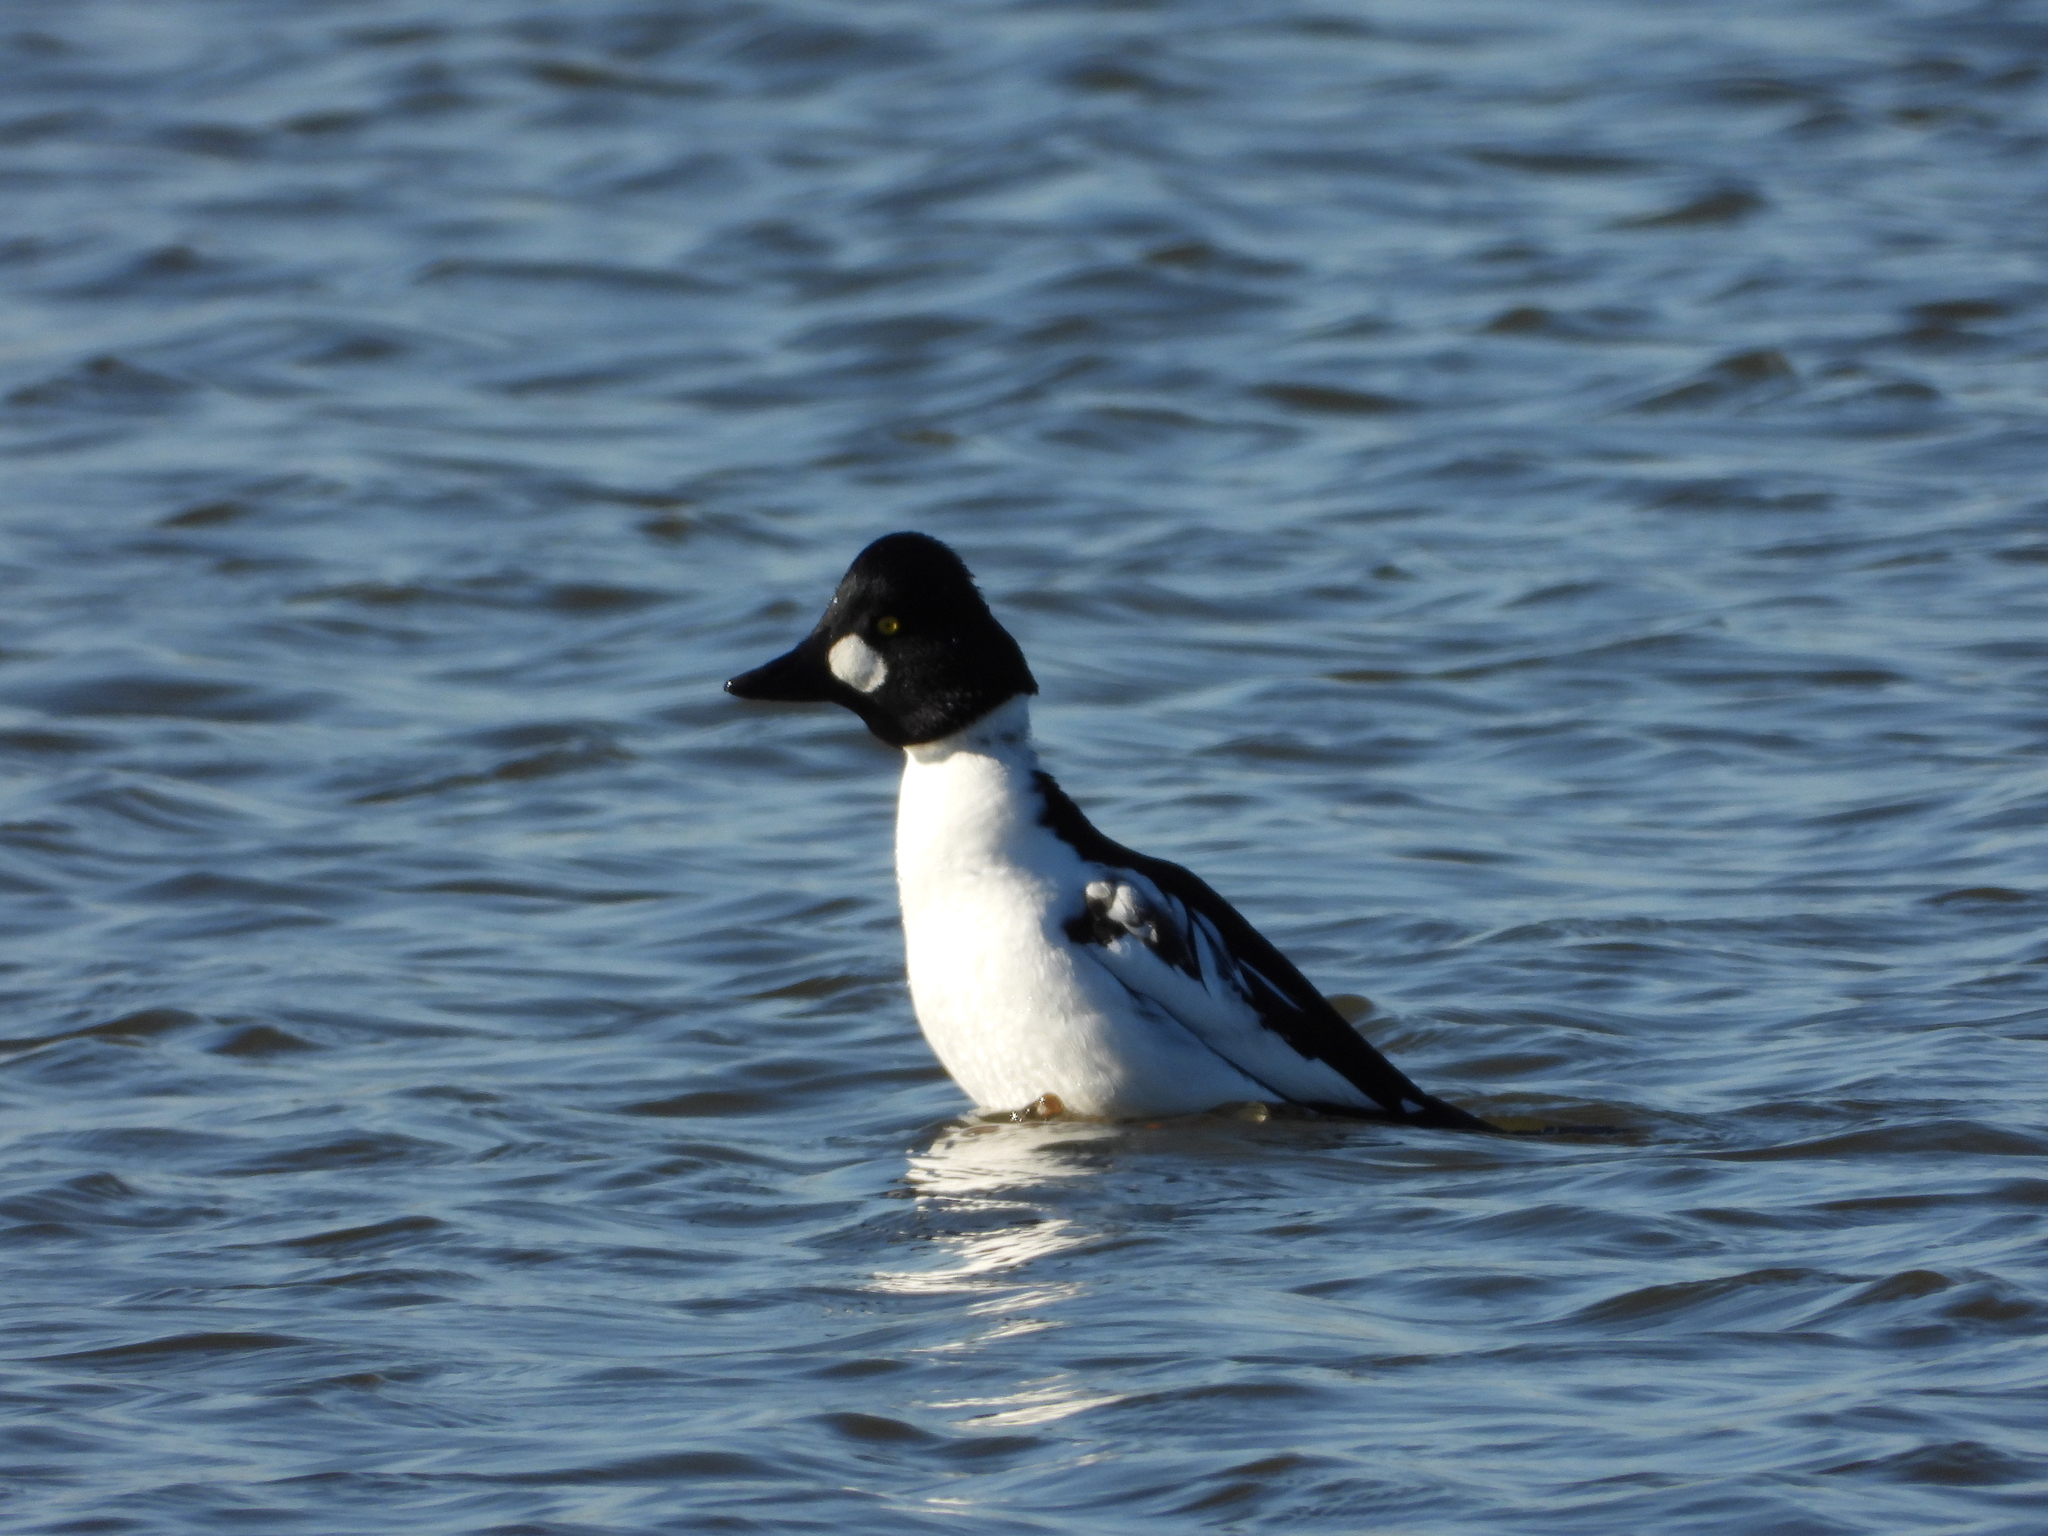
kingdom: Animalia
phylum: Chordata
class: Aves
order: Anseriformes
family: Anatidae
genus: Bucephala
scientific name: Bucephala clangula
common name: Common goldeneye
